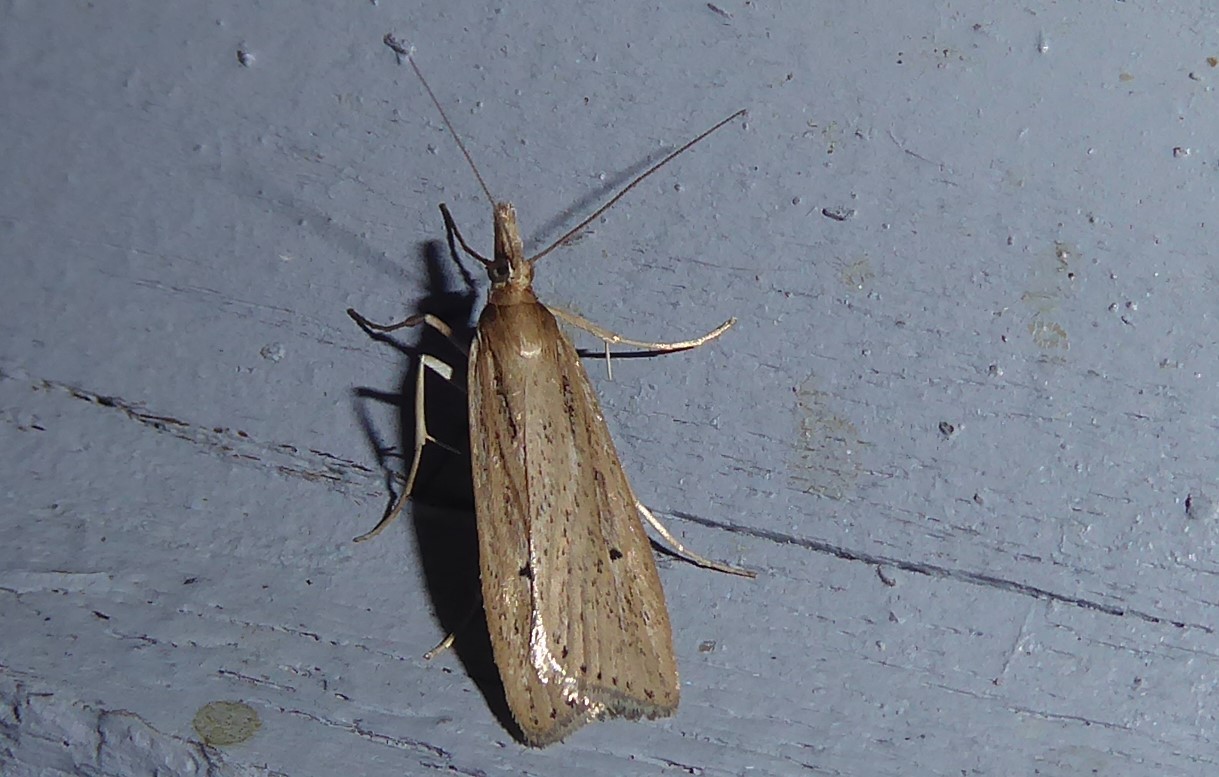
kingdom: Animalia
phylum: Arthropoda
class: Insecta
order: Lepidoptera
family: Crambidae
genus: Eudonia
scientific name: Eudonia sabulosella
